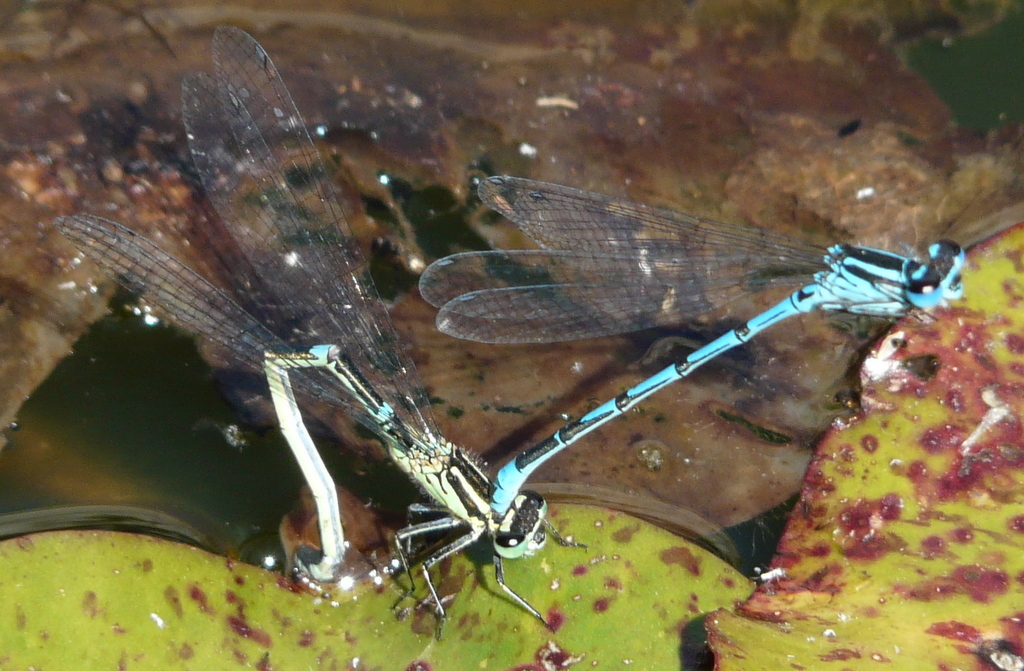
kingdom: Animalia
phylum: Arthropoda
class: Insecta
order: Odonata
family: Coenagrionidae
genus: Coenagrion
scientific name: Coenagrion puella
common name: Azure damselfly
